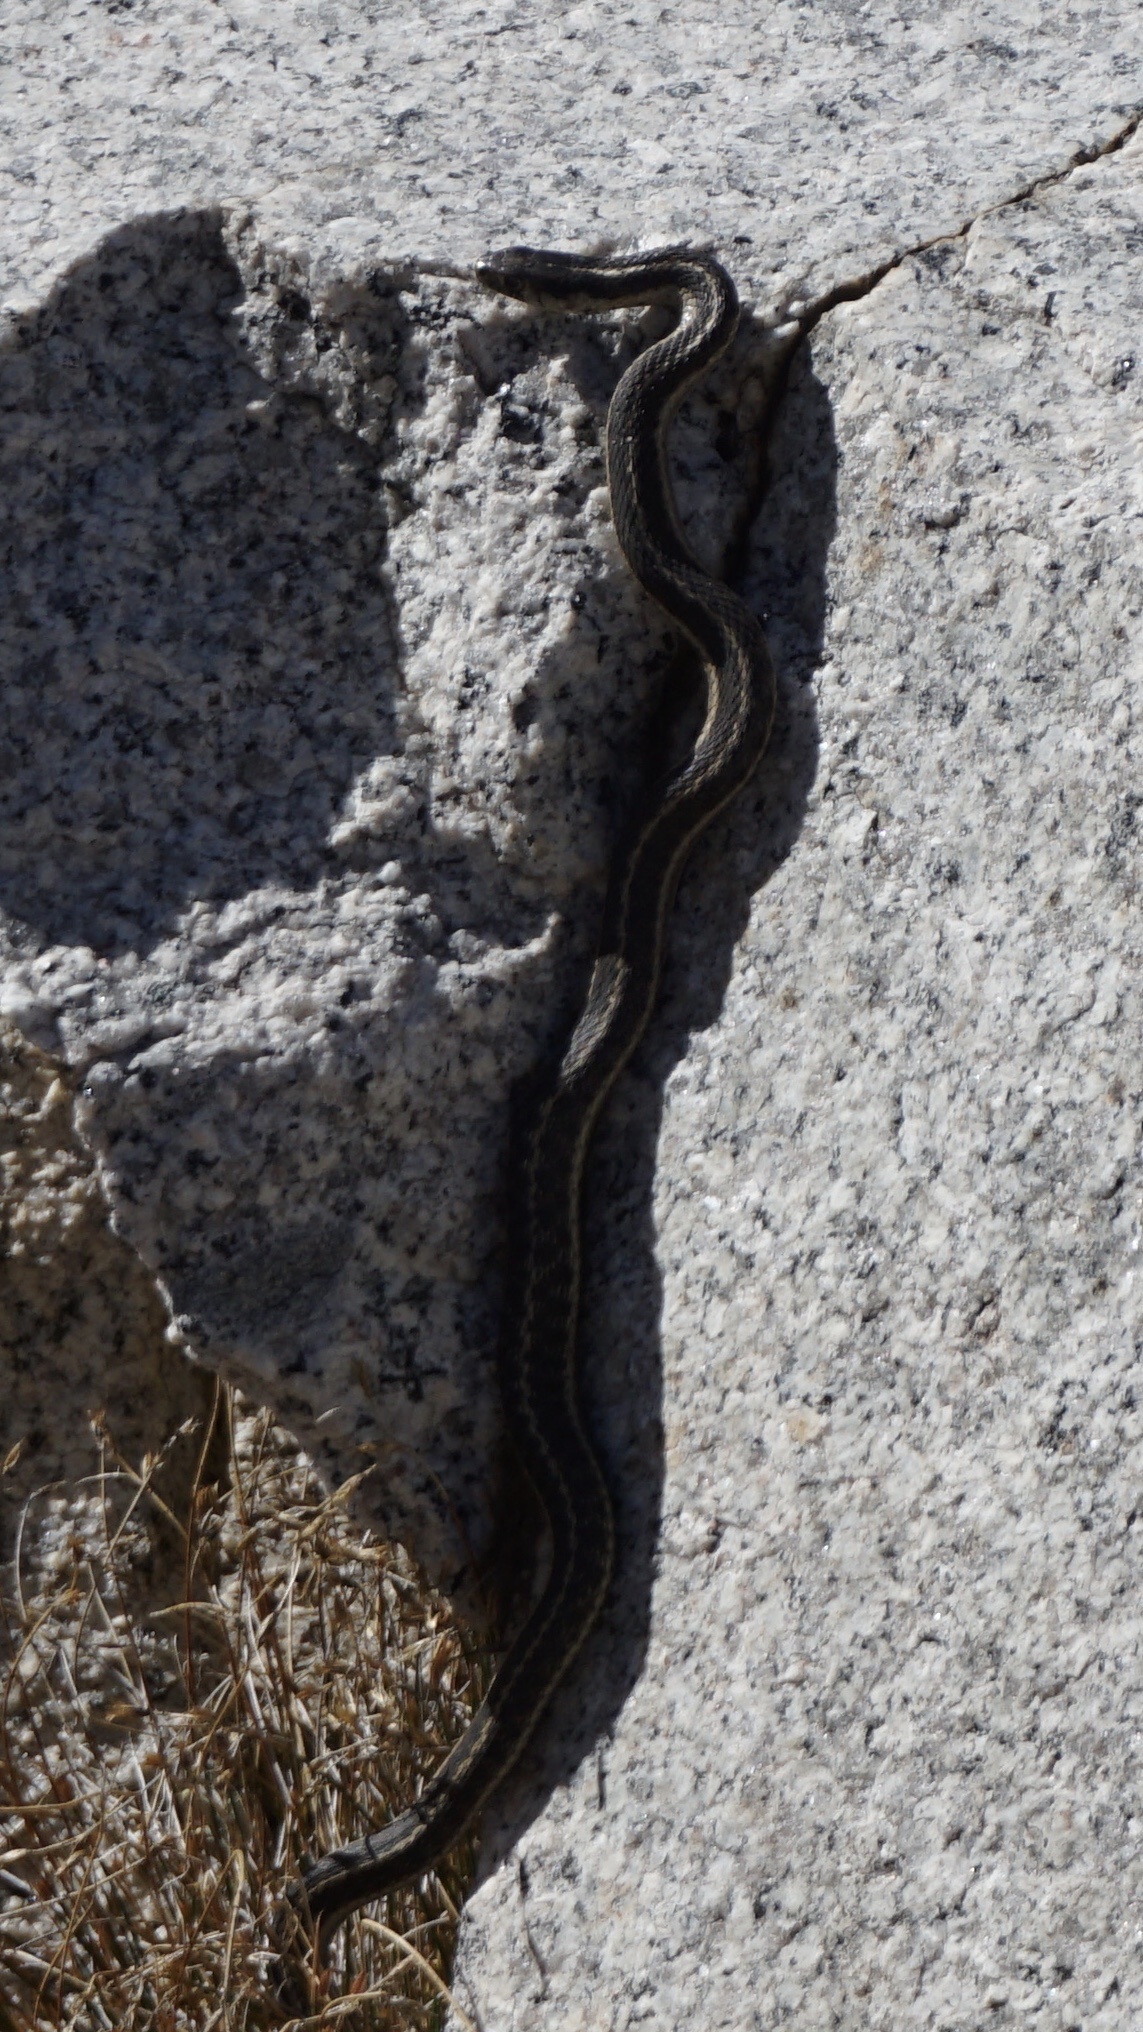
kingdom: Animalia
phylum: Chordata
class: Squamata
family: Colubridae
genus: Thamnophis
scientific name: Thamnophis elegans
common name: Western terrestrial garter snake
